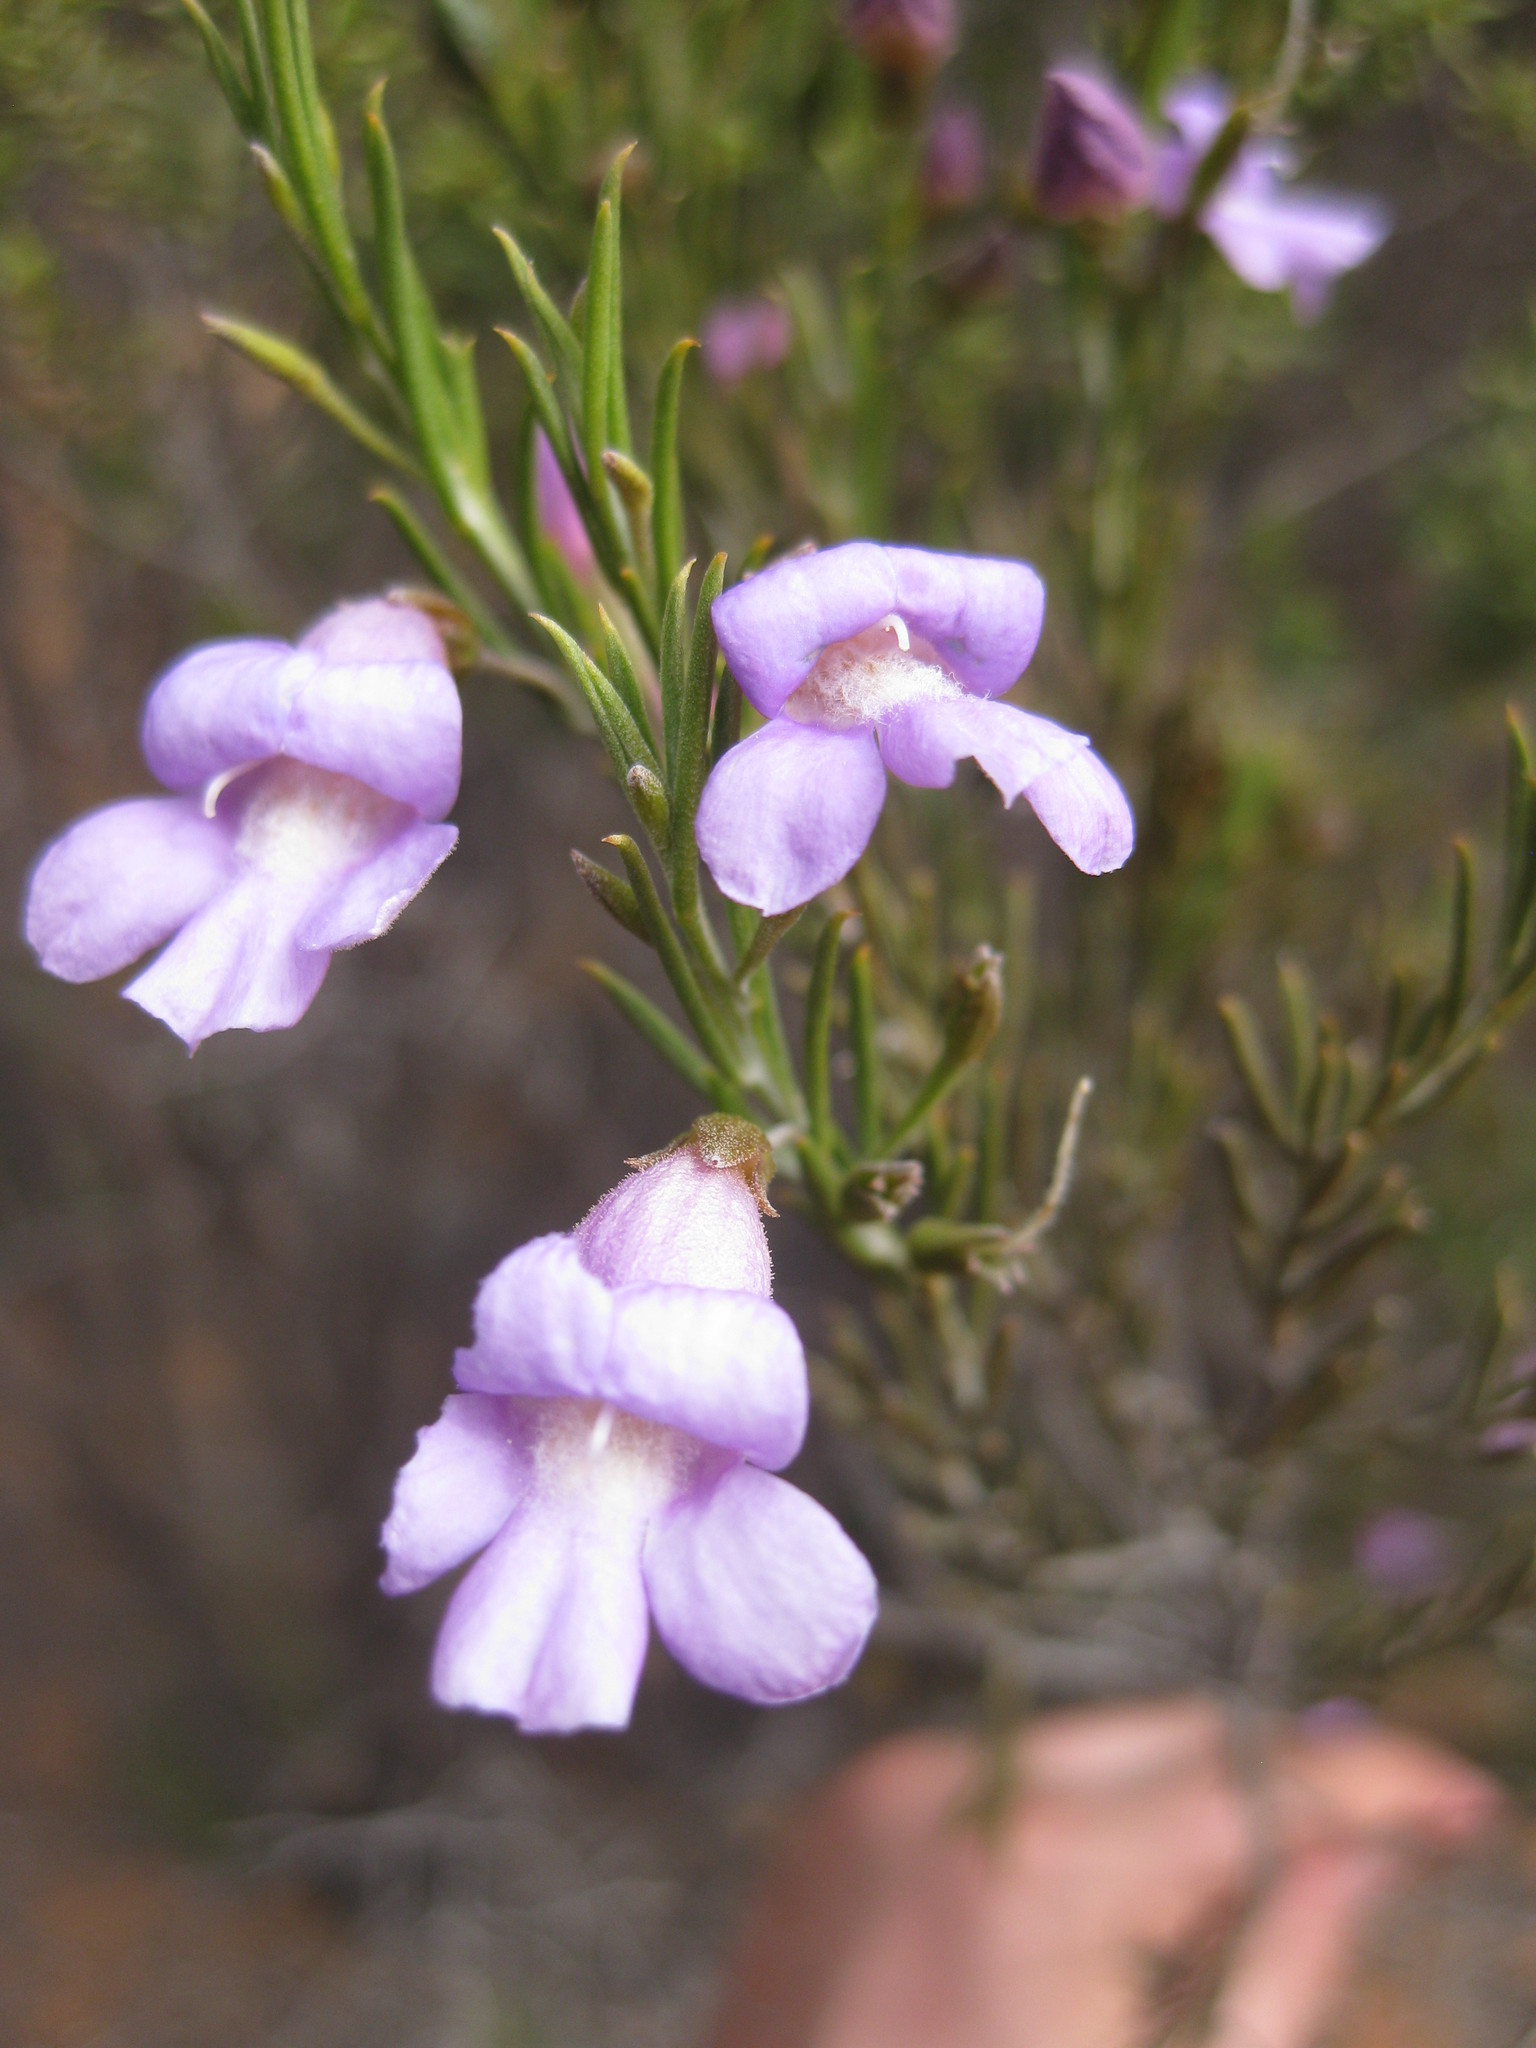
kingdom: Plantae
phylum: Tracheophyta
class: Magnoliopsida
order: Lamiales
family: Scrophulariaceae
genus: Eremophila
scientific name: Eremophila hamulata
